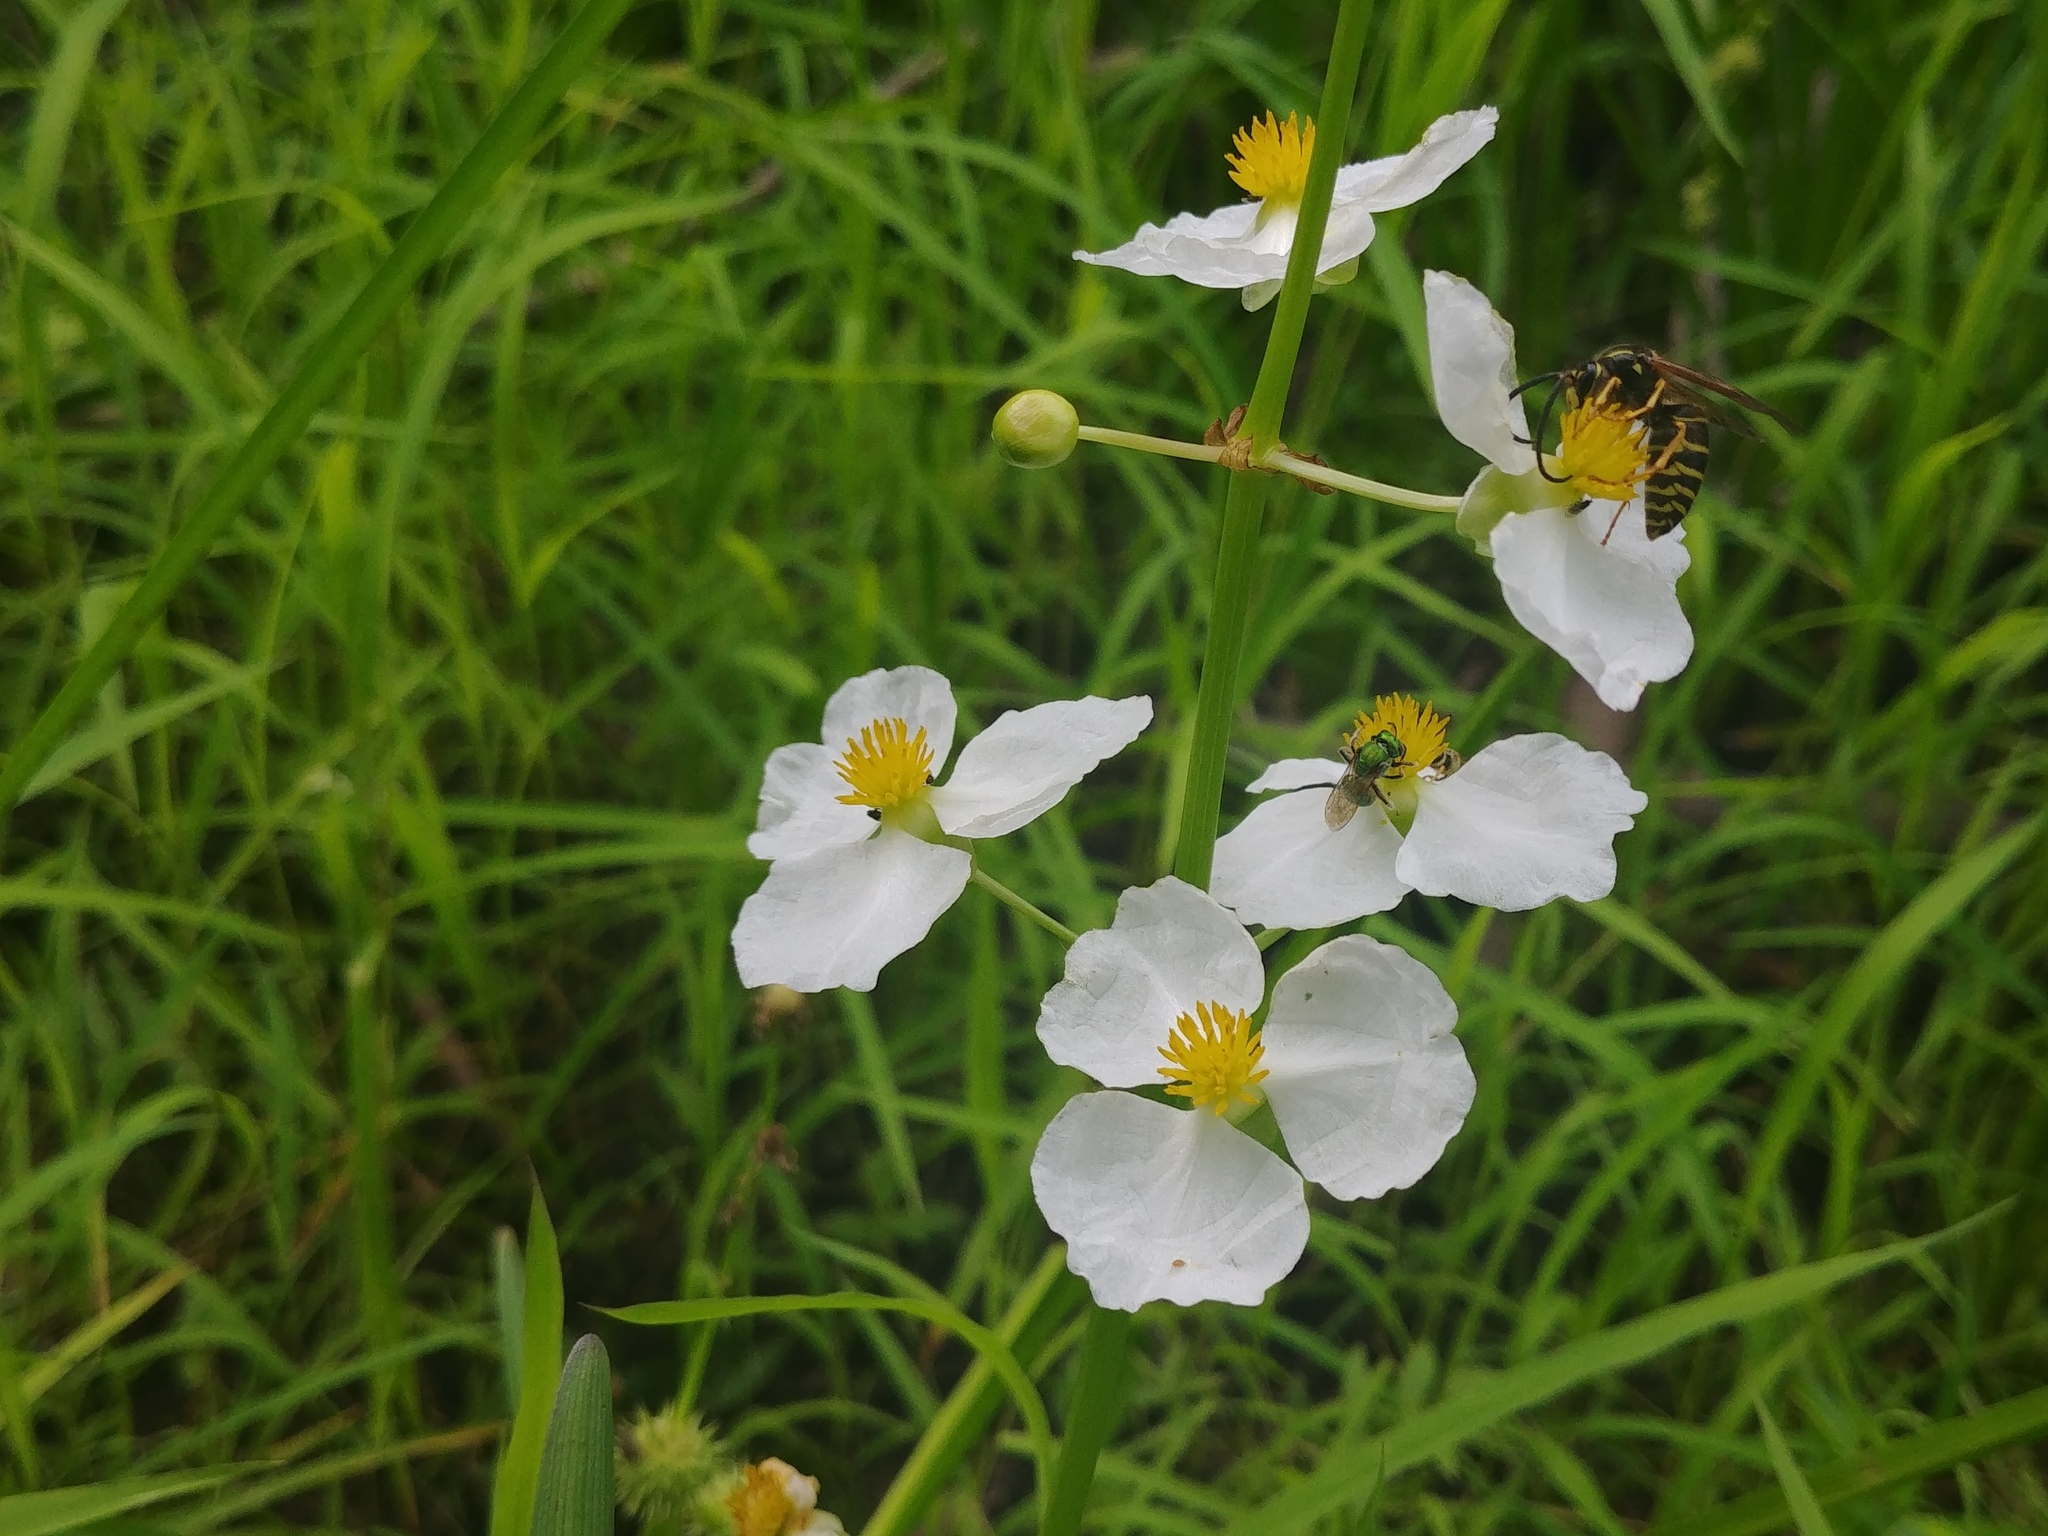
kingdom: Plantae
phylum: Tracheophyta
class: Liliopsida
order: Alismatales
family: Alismataceae
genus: Sagittaria
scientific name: Sagittaria latifolia
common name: Duck-potato
